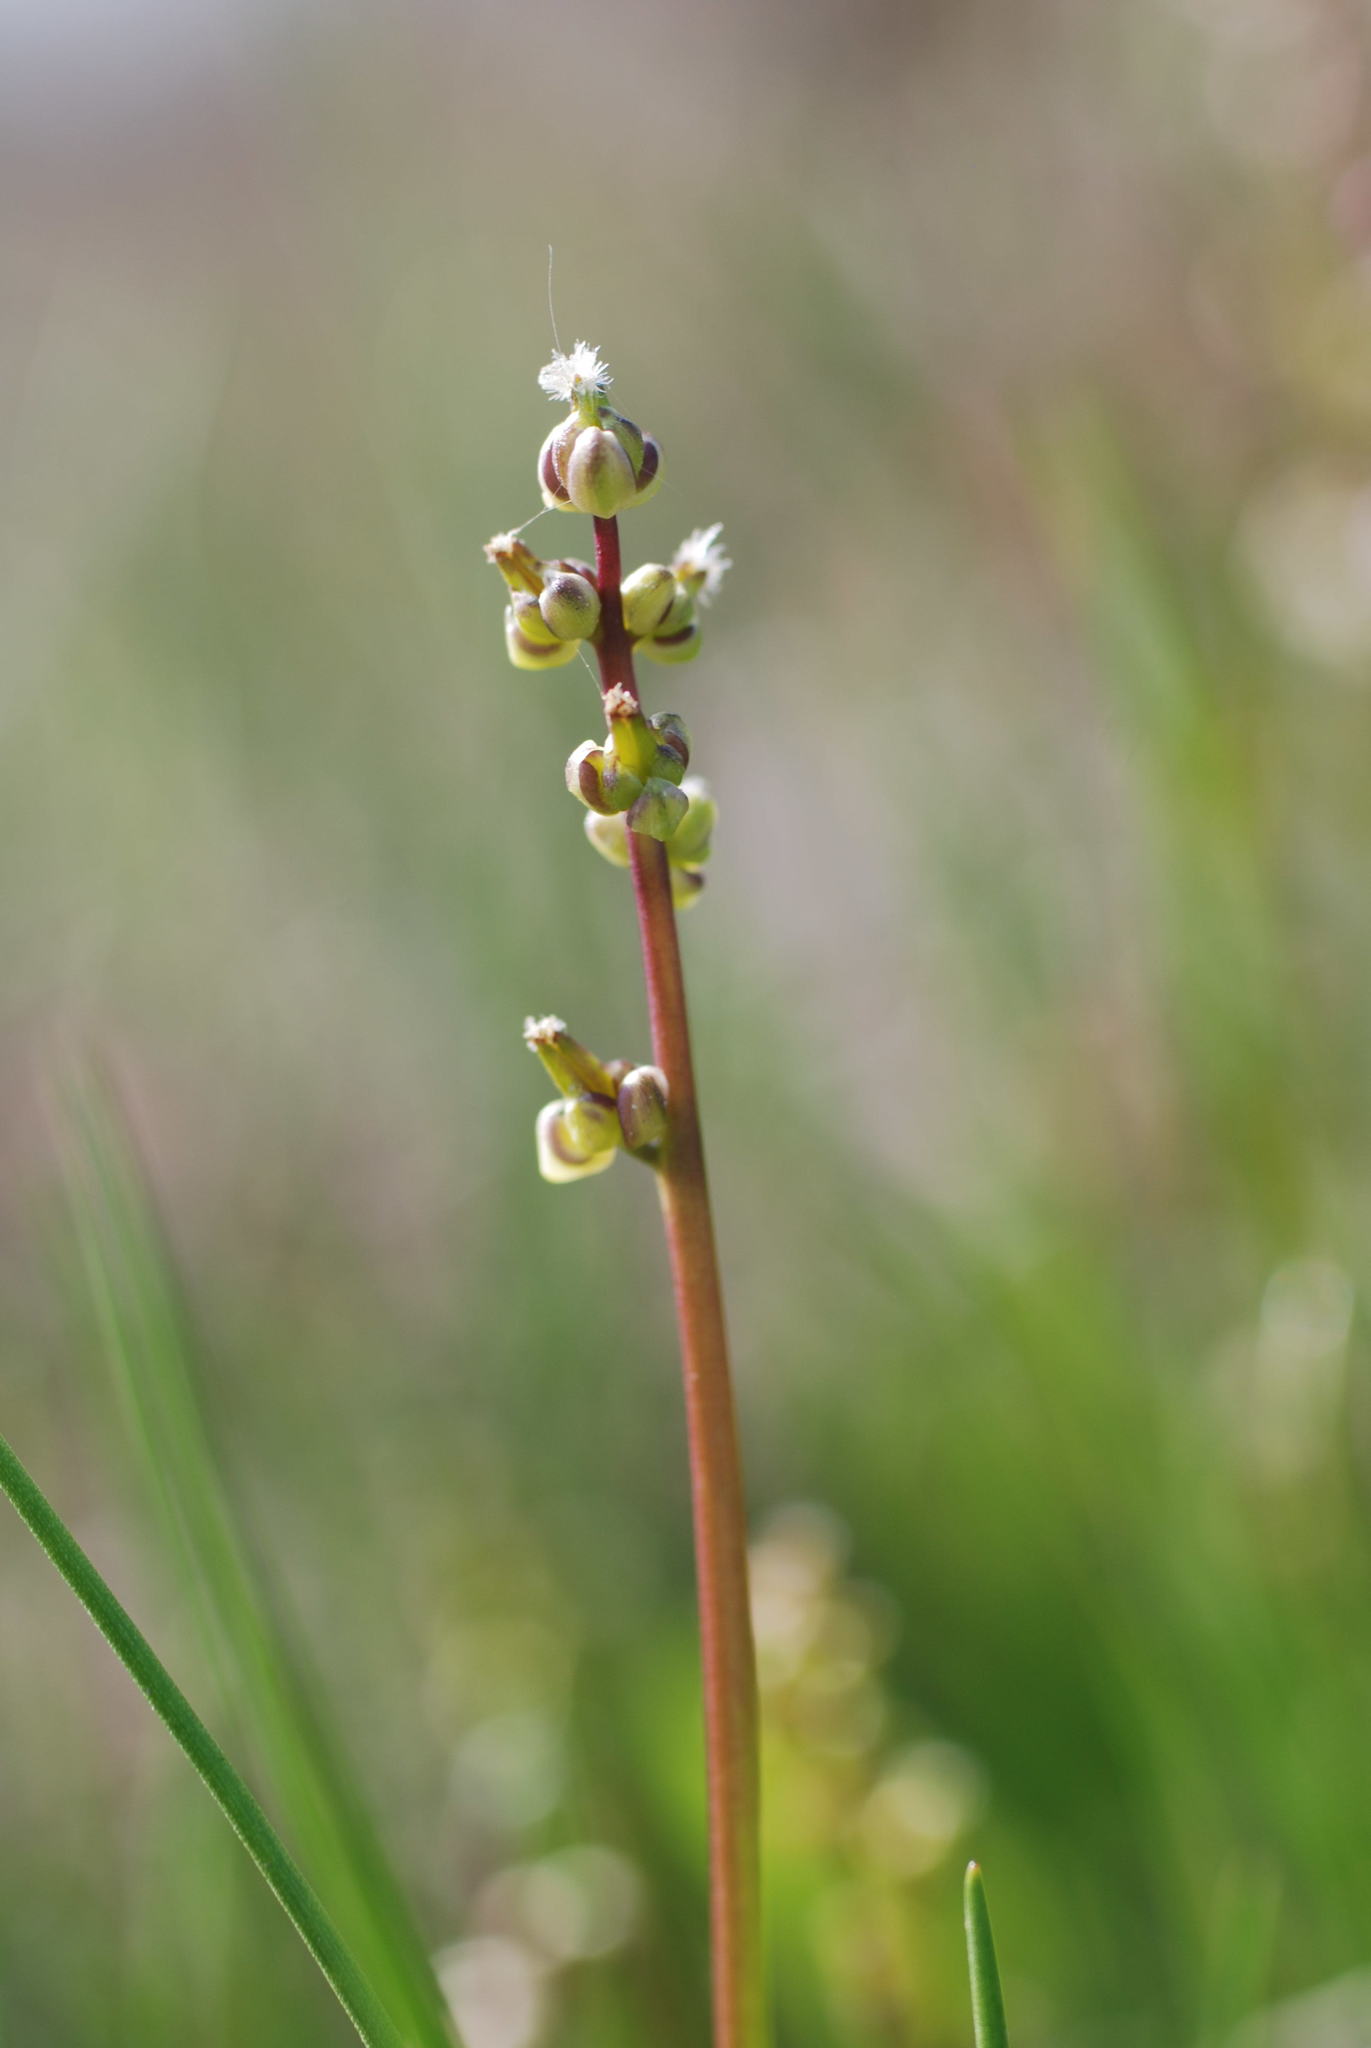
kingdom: Plantae
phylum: Tracheophyta
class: Liliopsida
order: Alismatales
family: Juncaginaceae
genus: Triglochin
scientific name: Triglochin barrelieri
